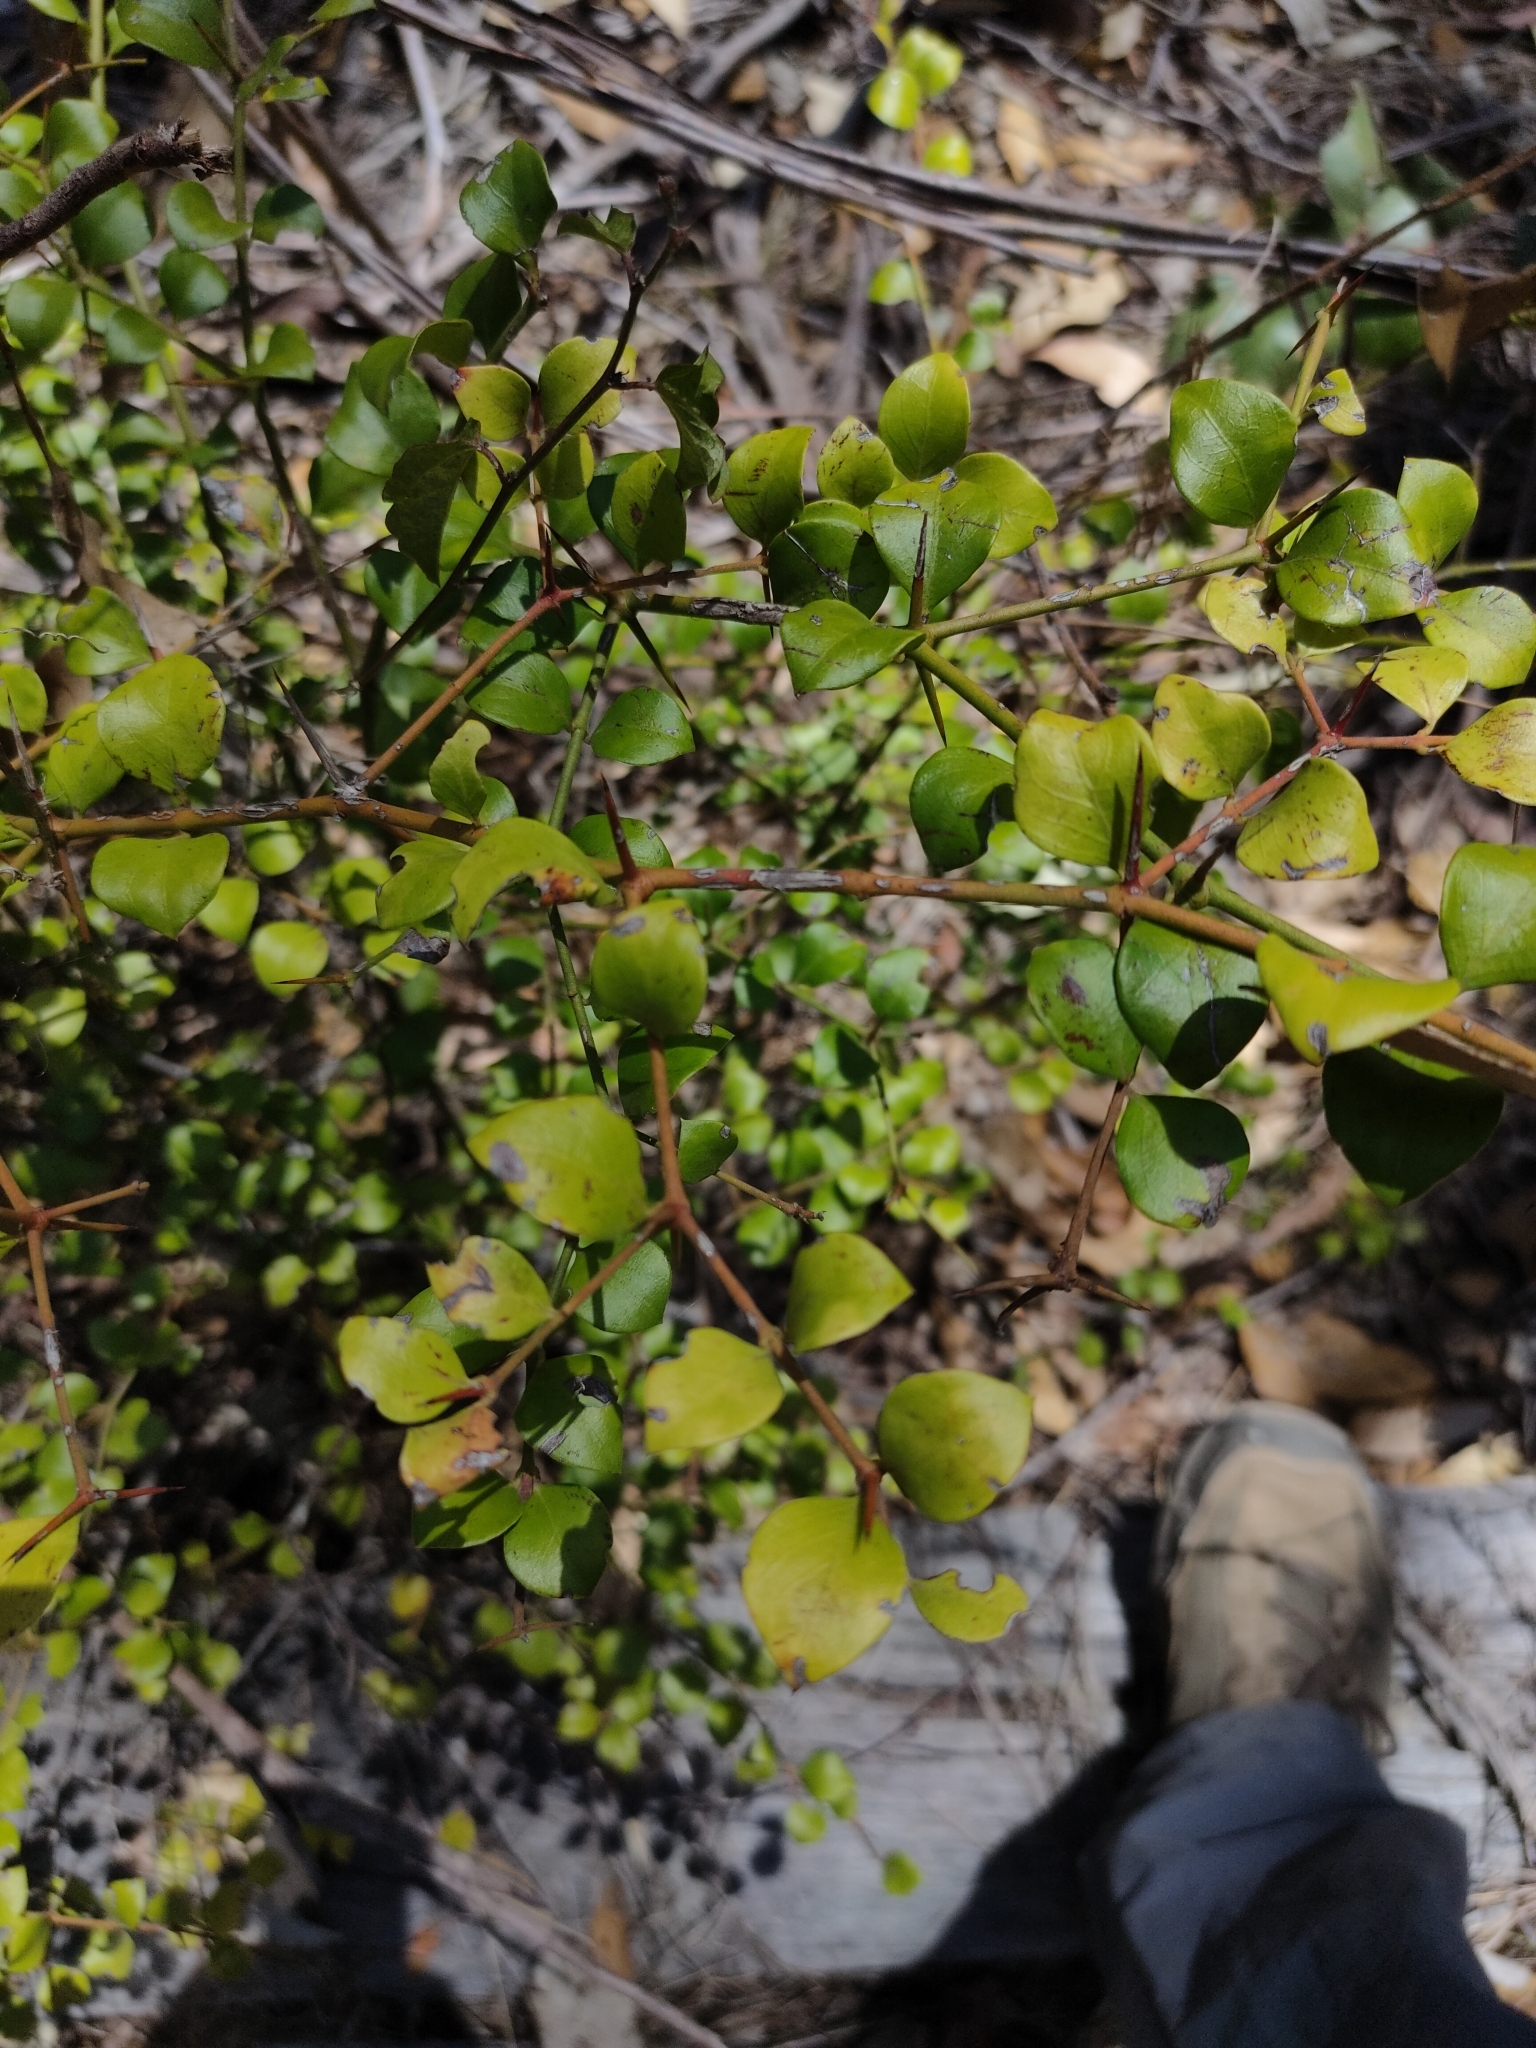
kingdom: Plantae
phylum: Tracheophyta
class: Magnoliopsida
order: Gentianales
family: Apocynaceae
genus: Carissa
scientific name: Carissa ovata
